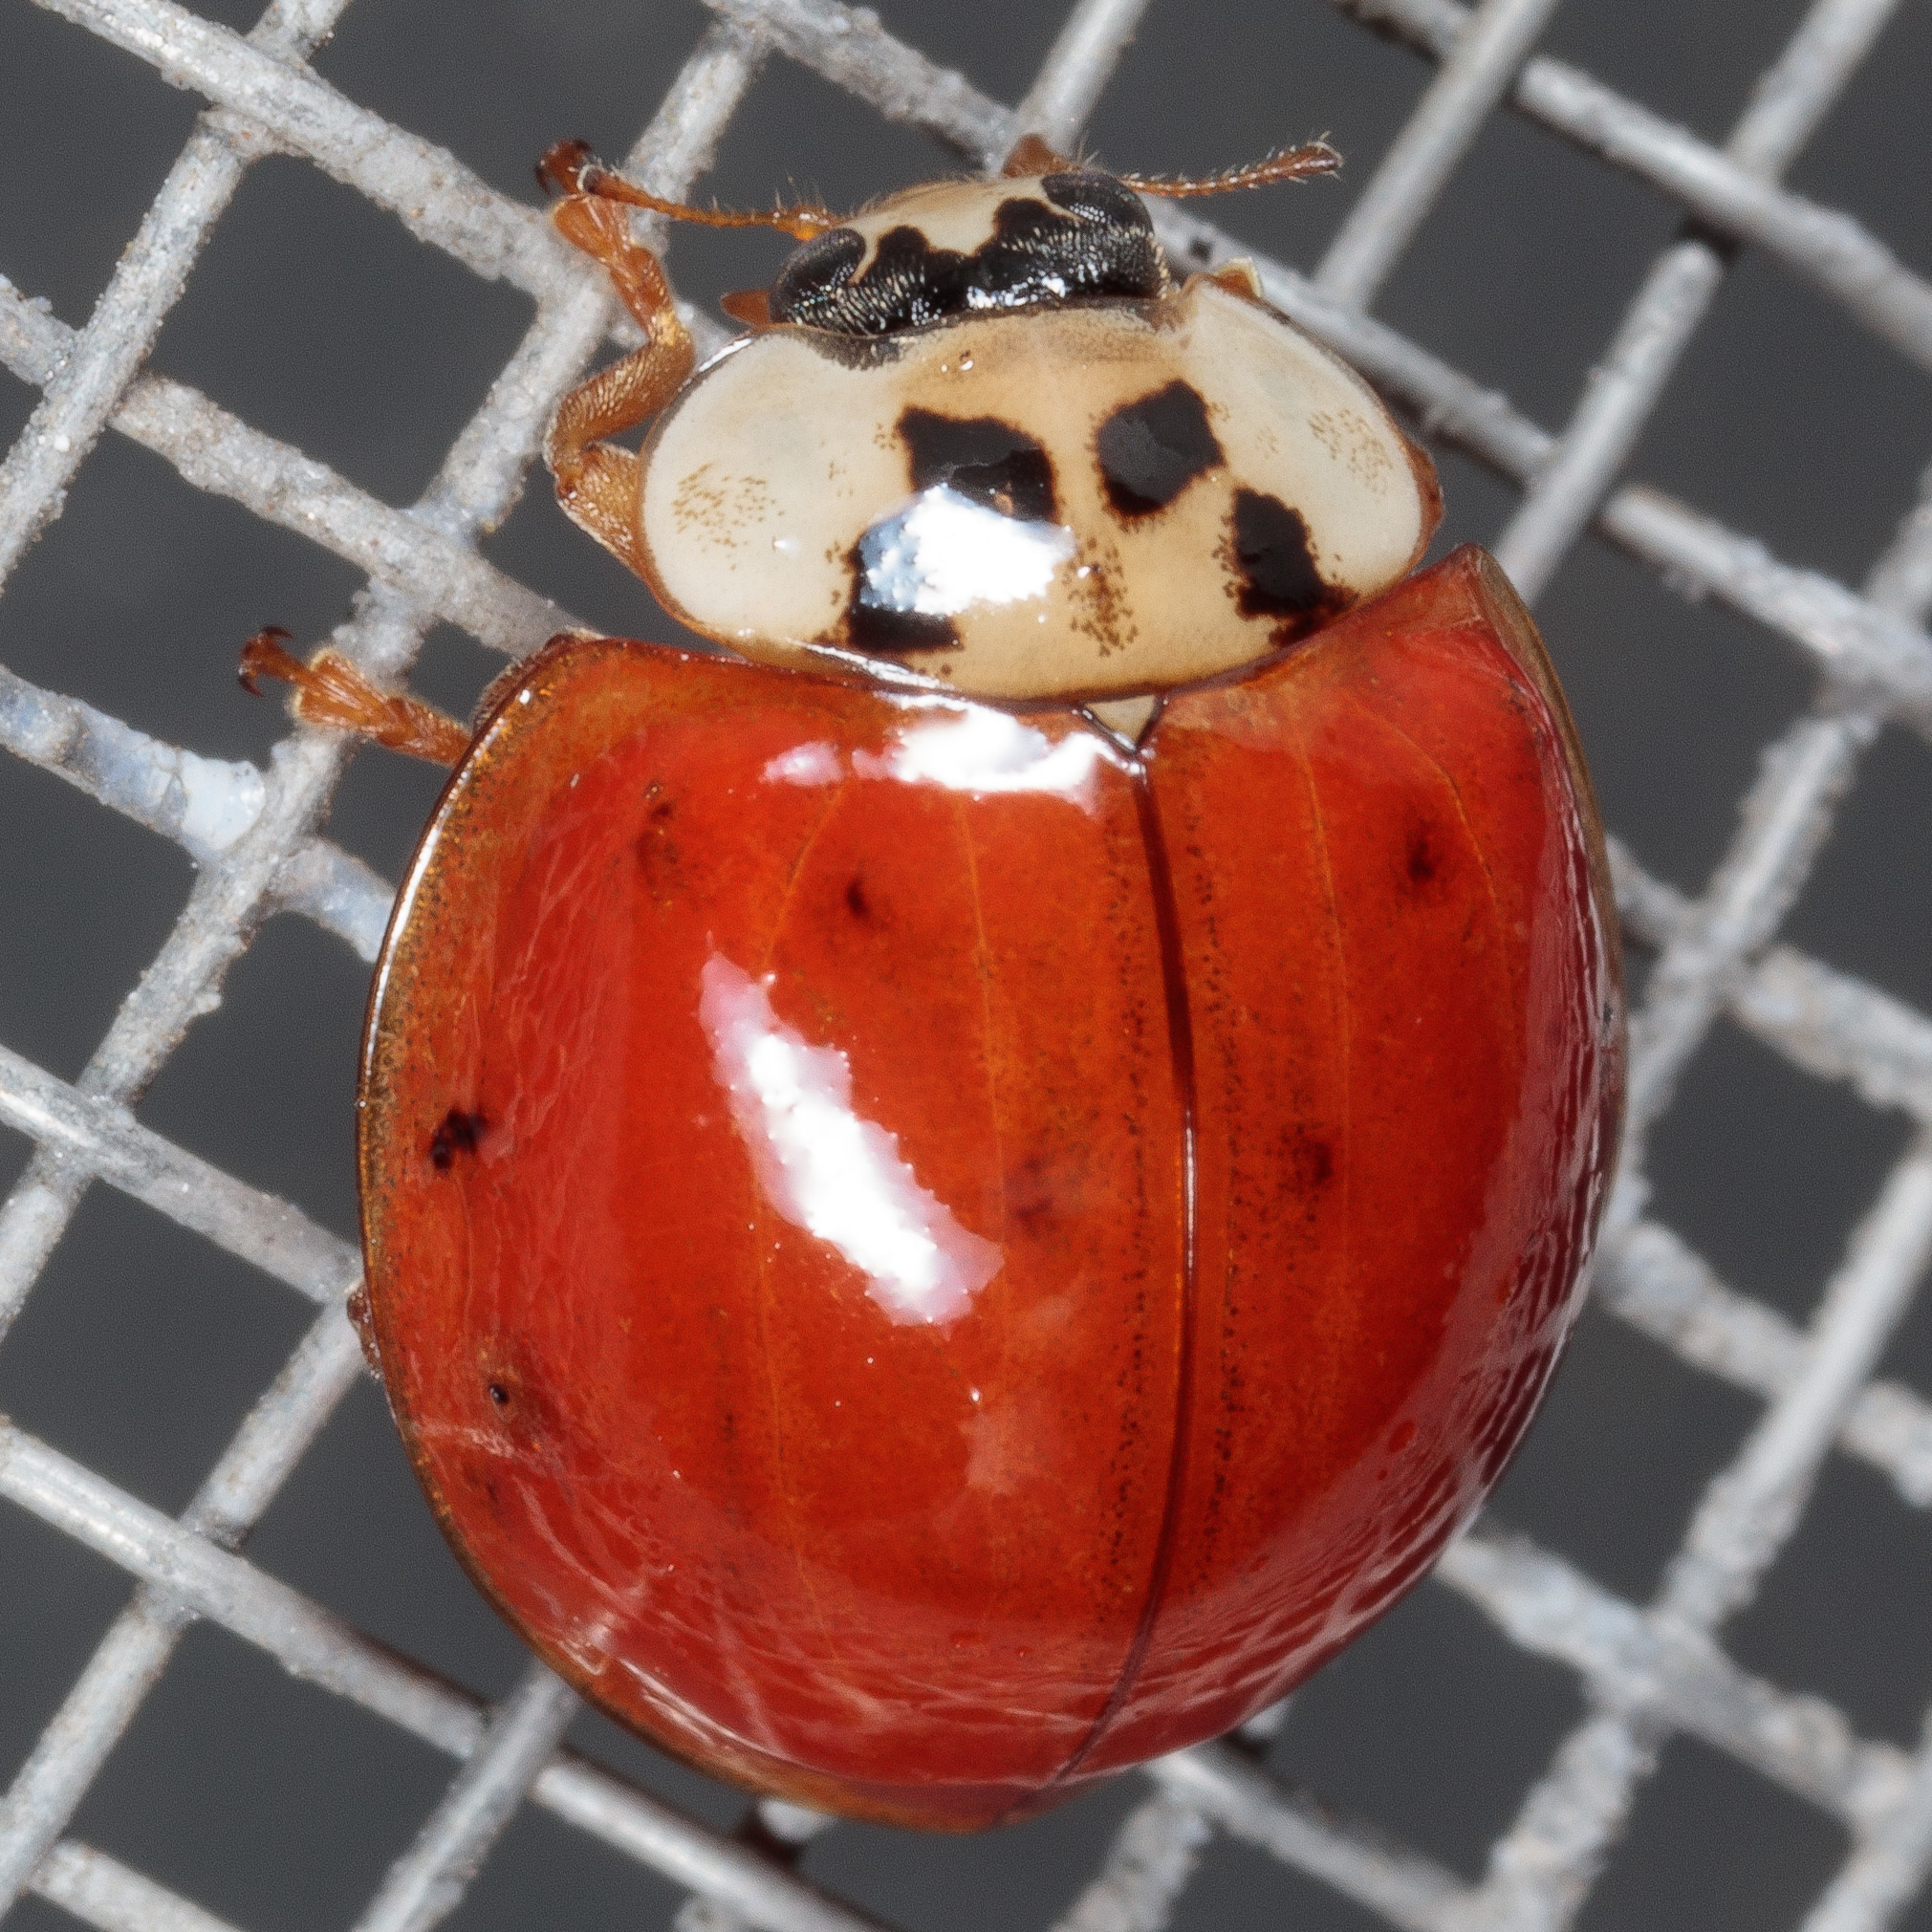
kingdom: Animalia
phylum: Arthropoda
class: Insecta
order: Coleoptera
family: Coccinellidae
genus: Harmonia
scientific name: Harmonia axyridis
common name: Harlequin ladybird
